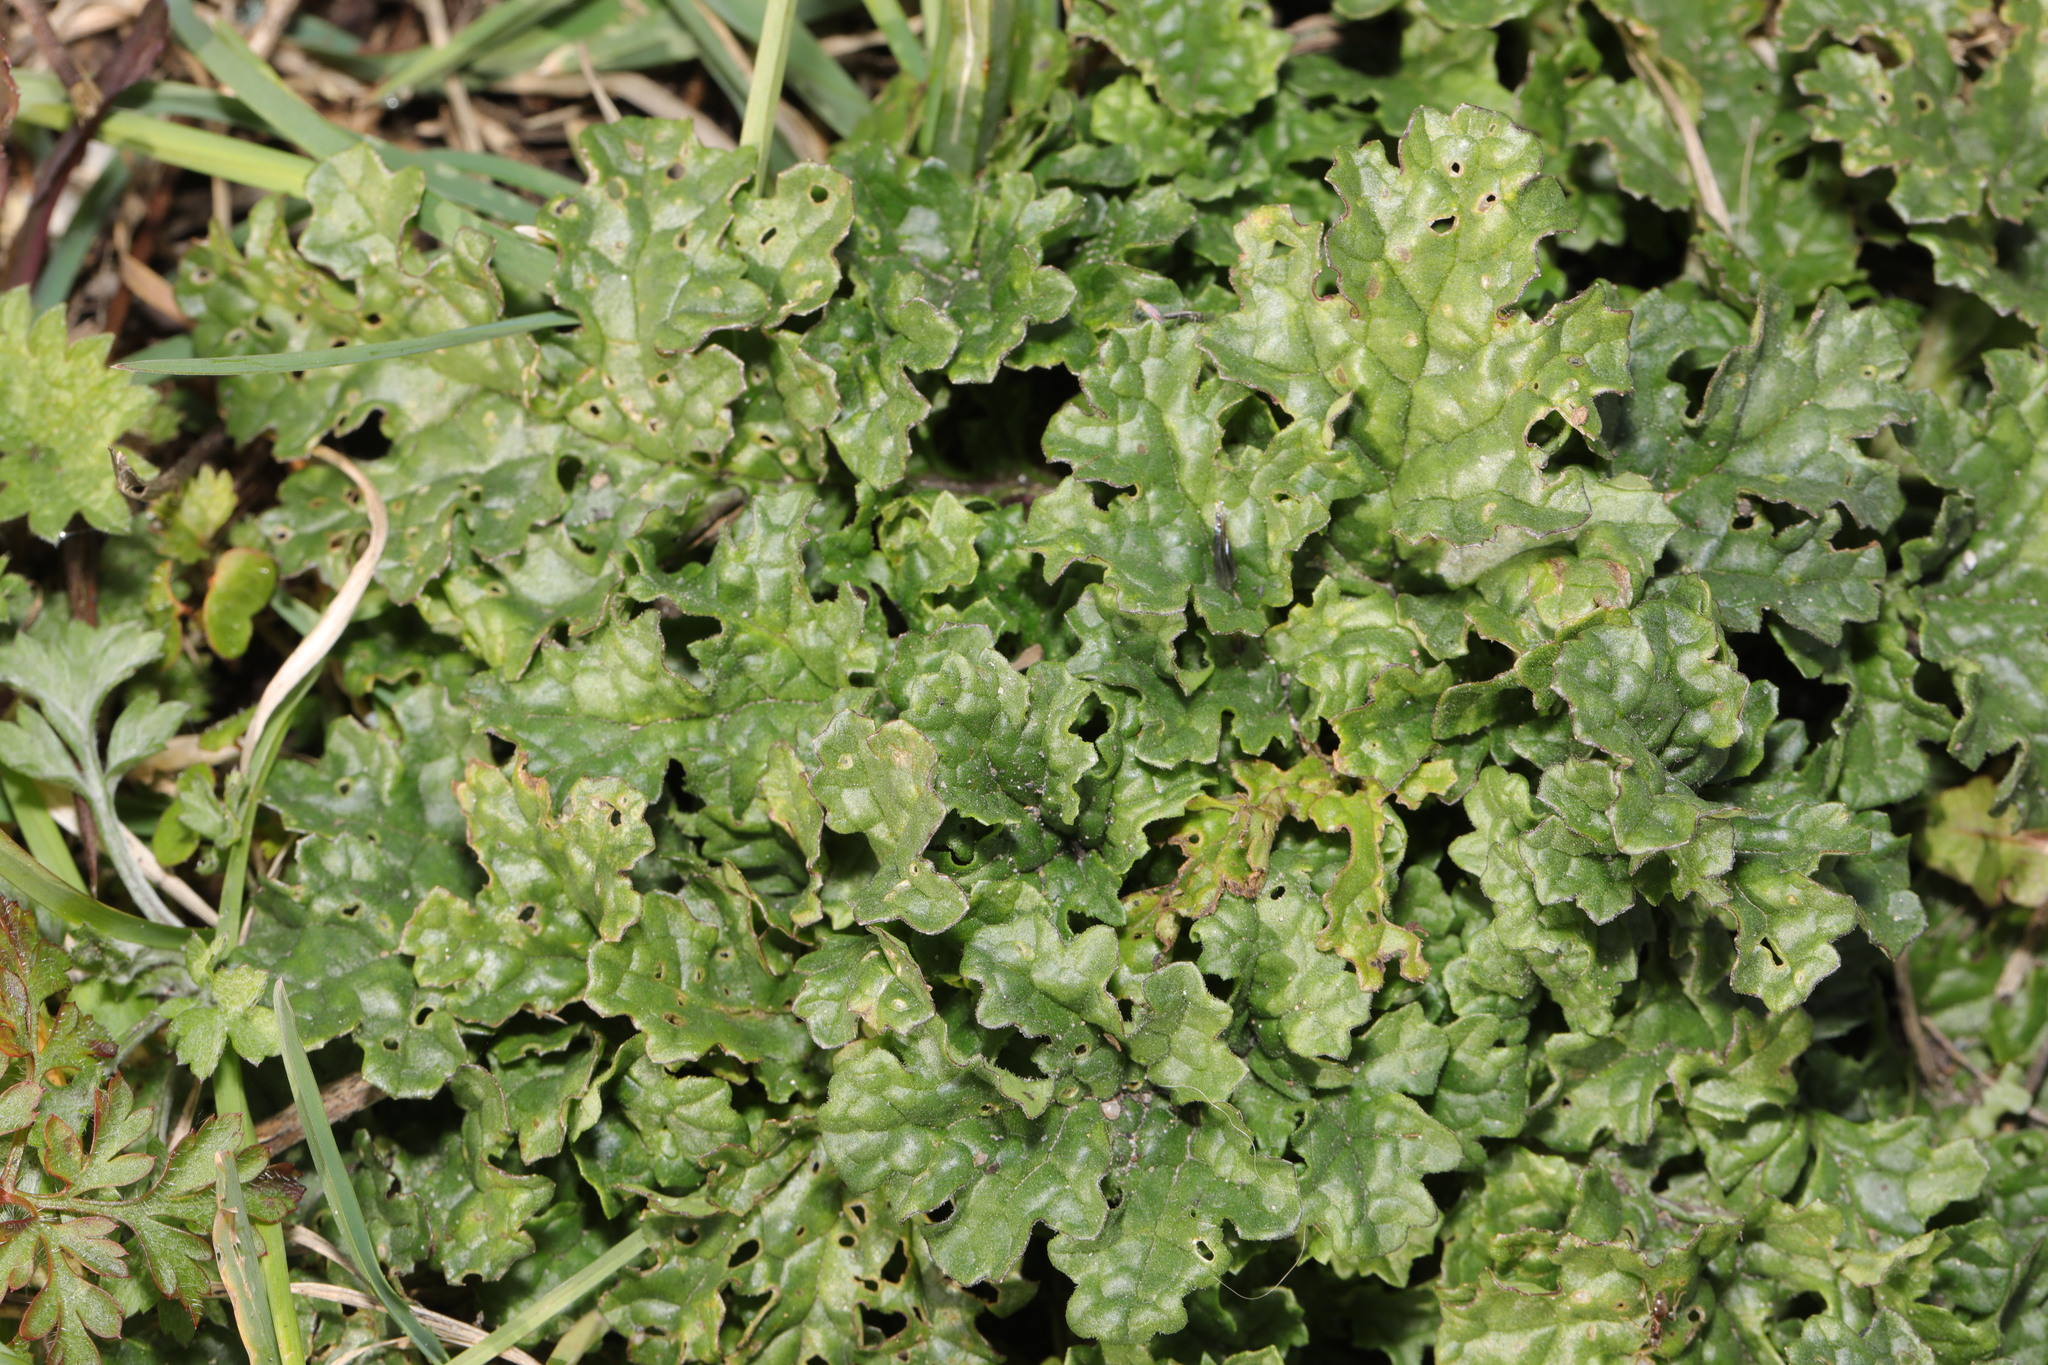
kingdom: Plantae
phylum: Tracheophyta
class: Magnoliopsida
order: Asterales
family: Asteraceae
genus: Jacobaea
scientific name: Jacobaea vulgaris
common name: Stinking willie
